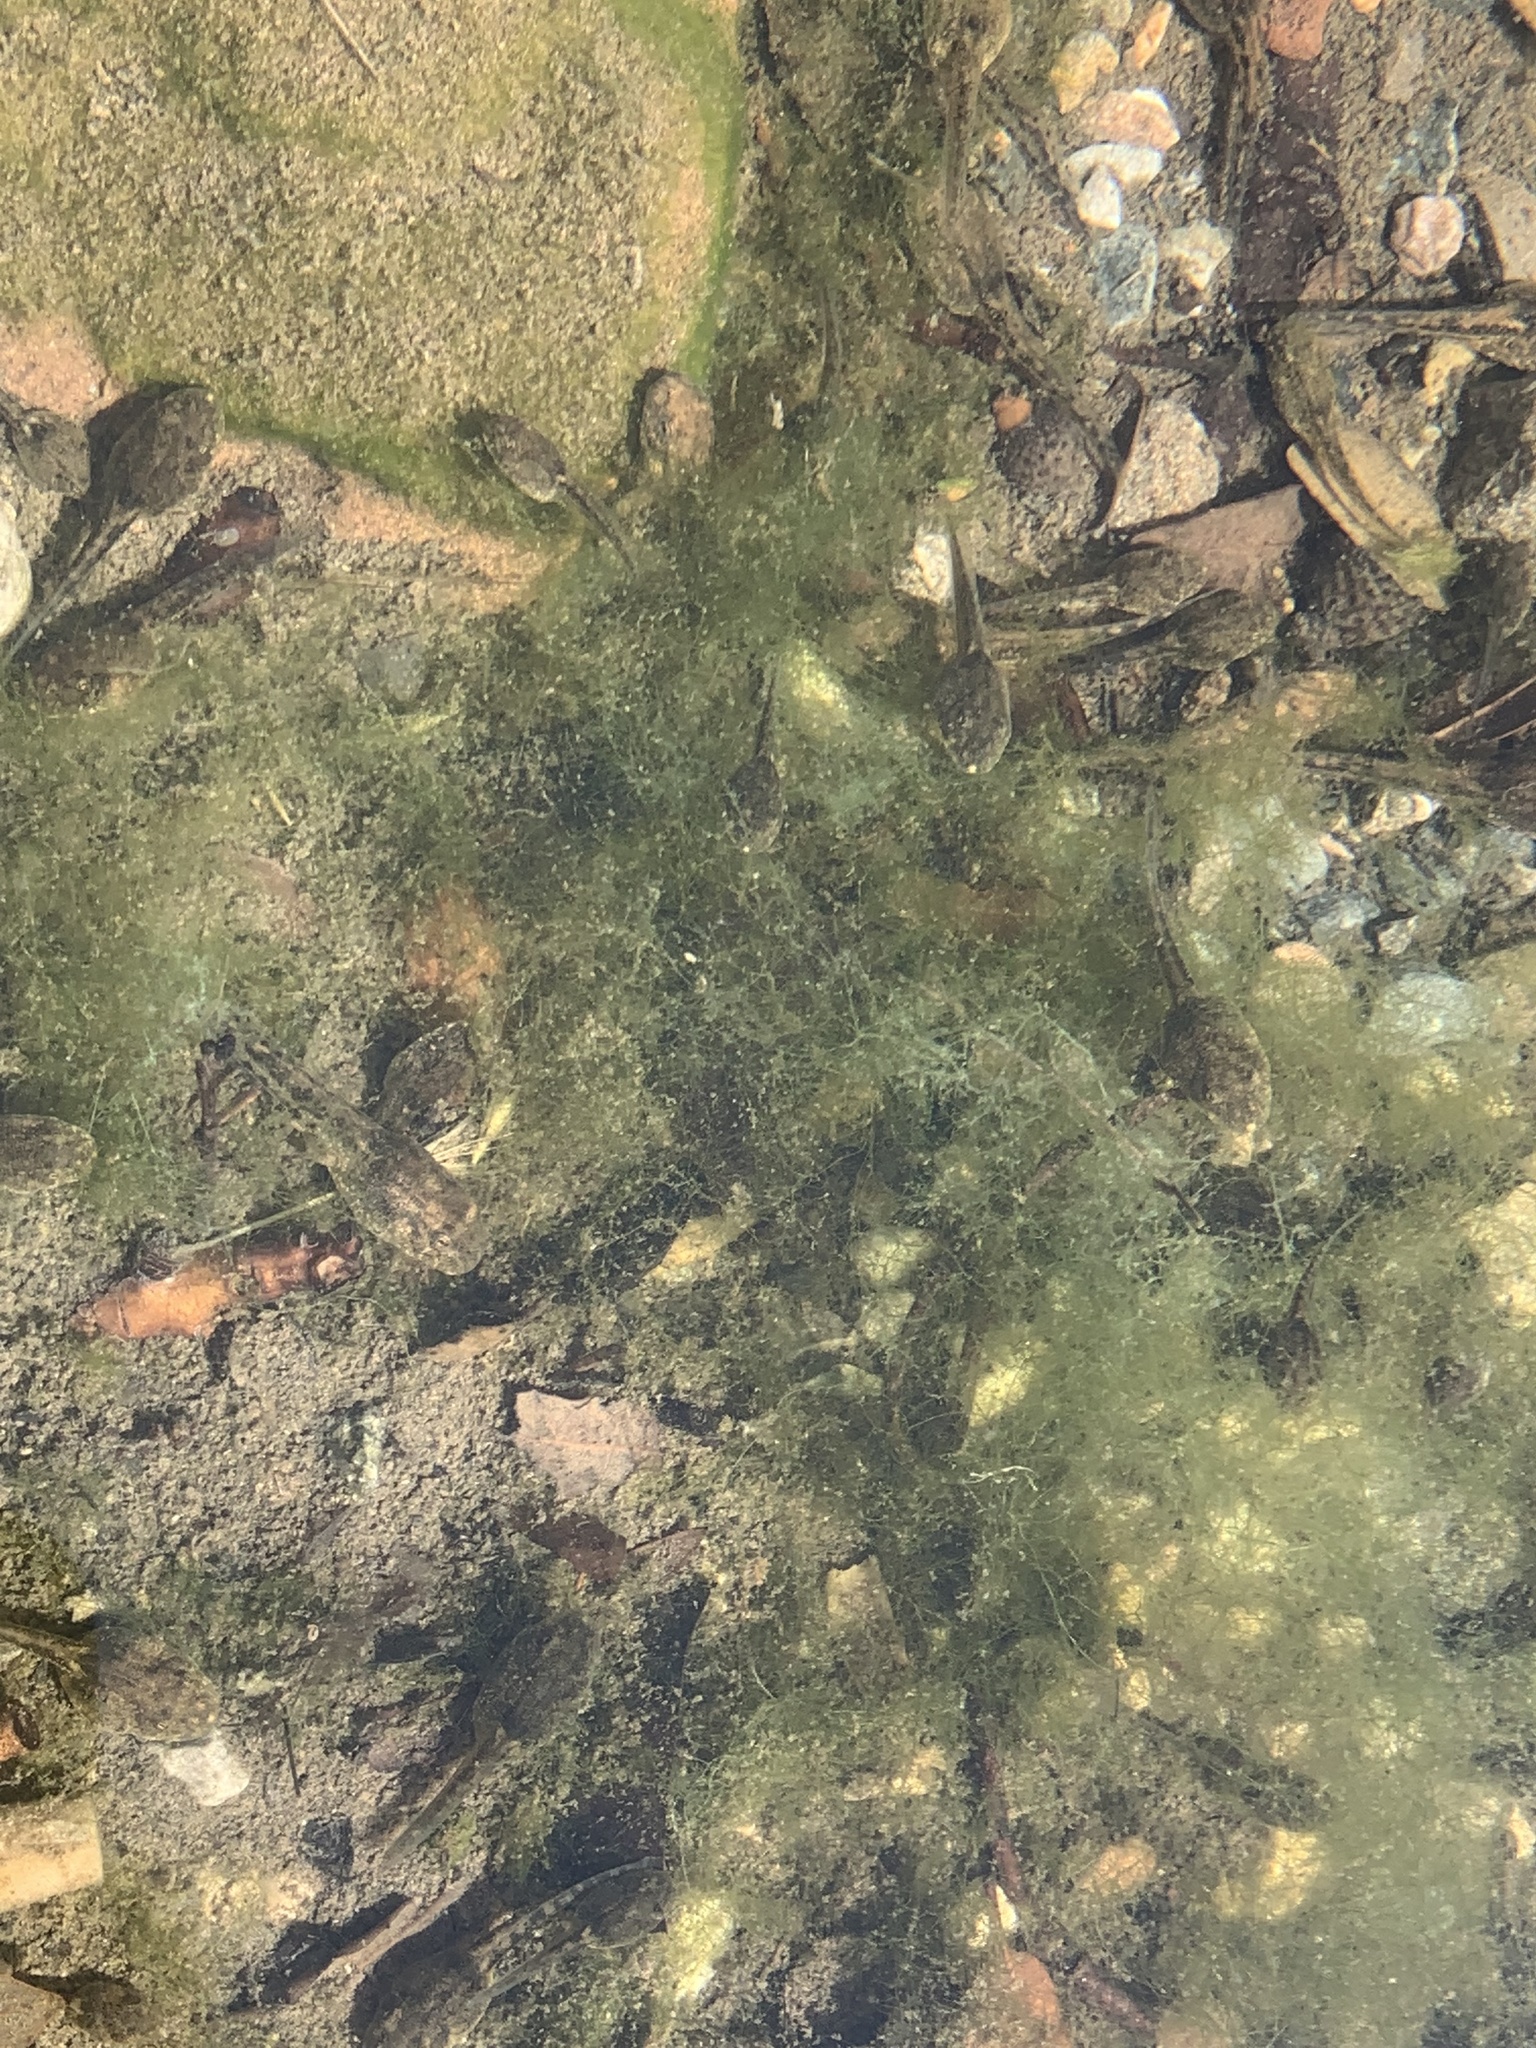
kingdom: Animalia
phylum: Chordata
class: Amphibia
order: Anura
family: Alytidae
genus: Alytes
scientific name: Alytes obstetricans
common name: Midwife toad
